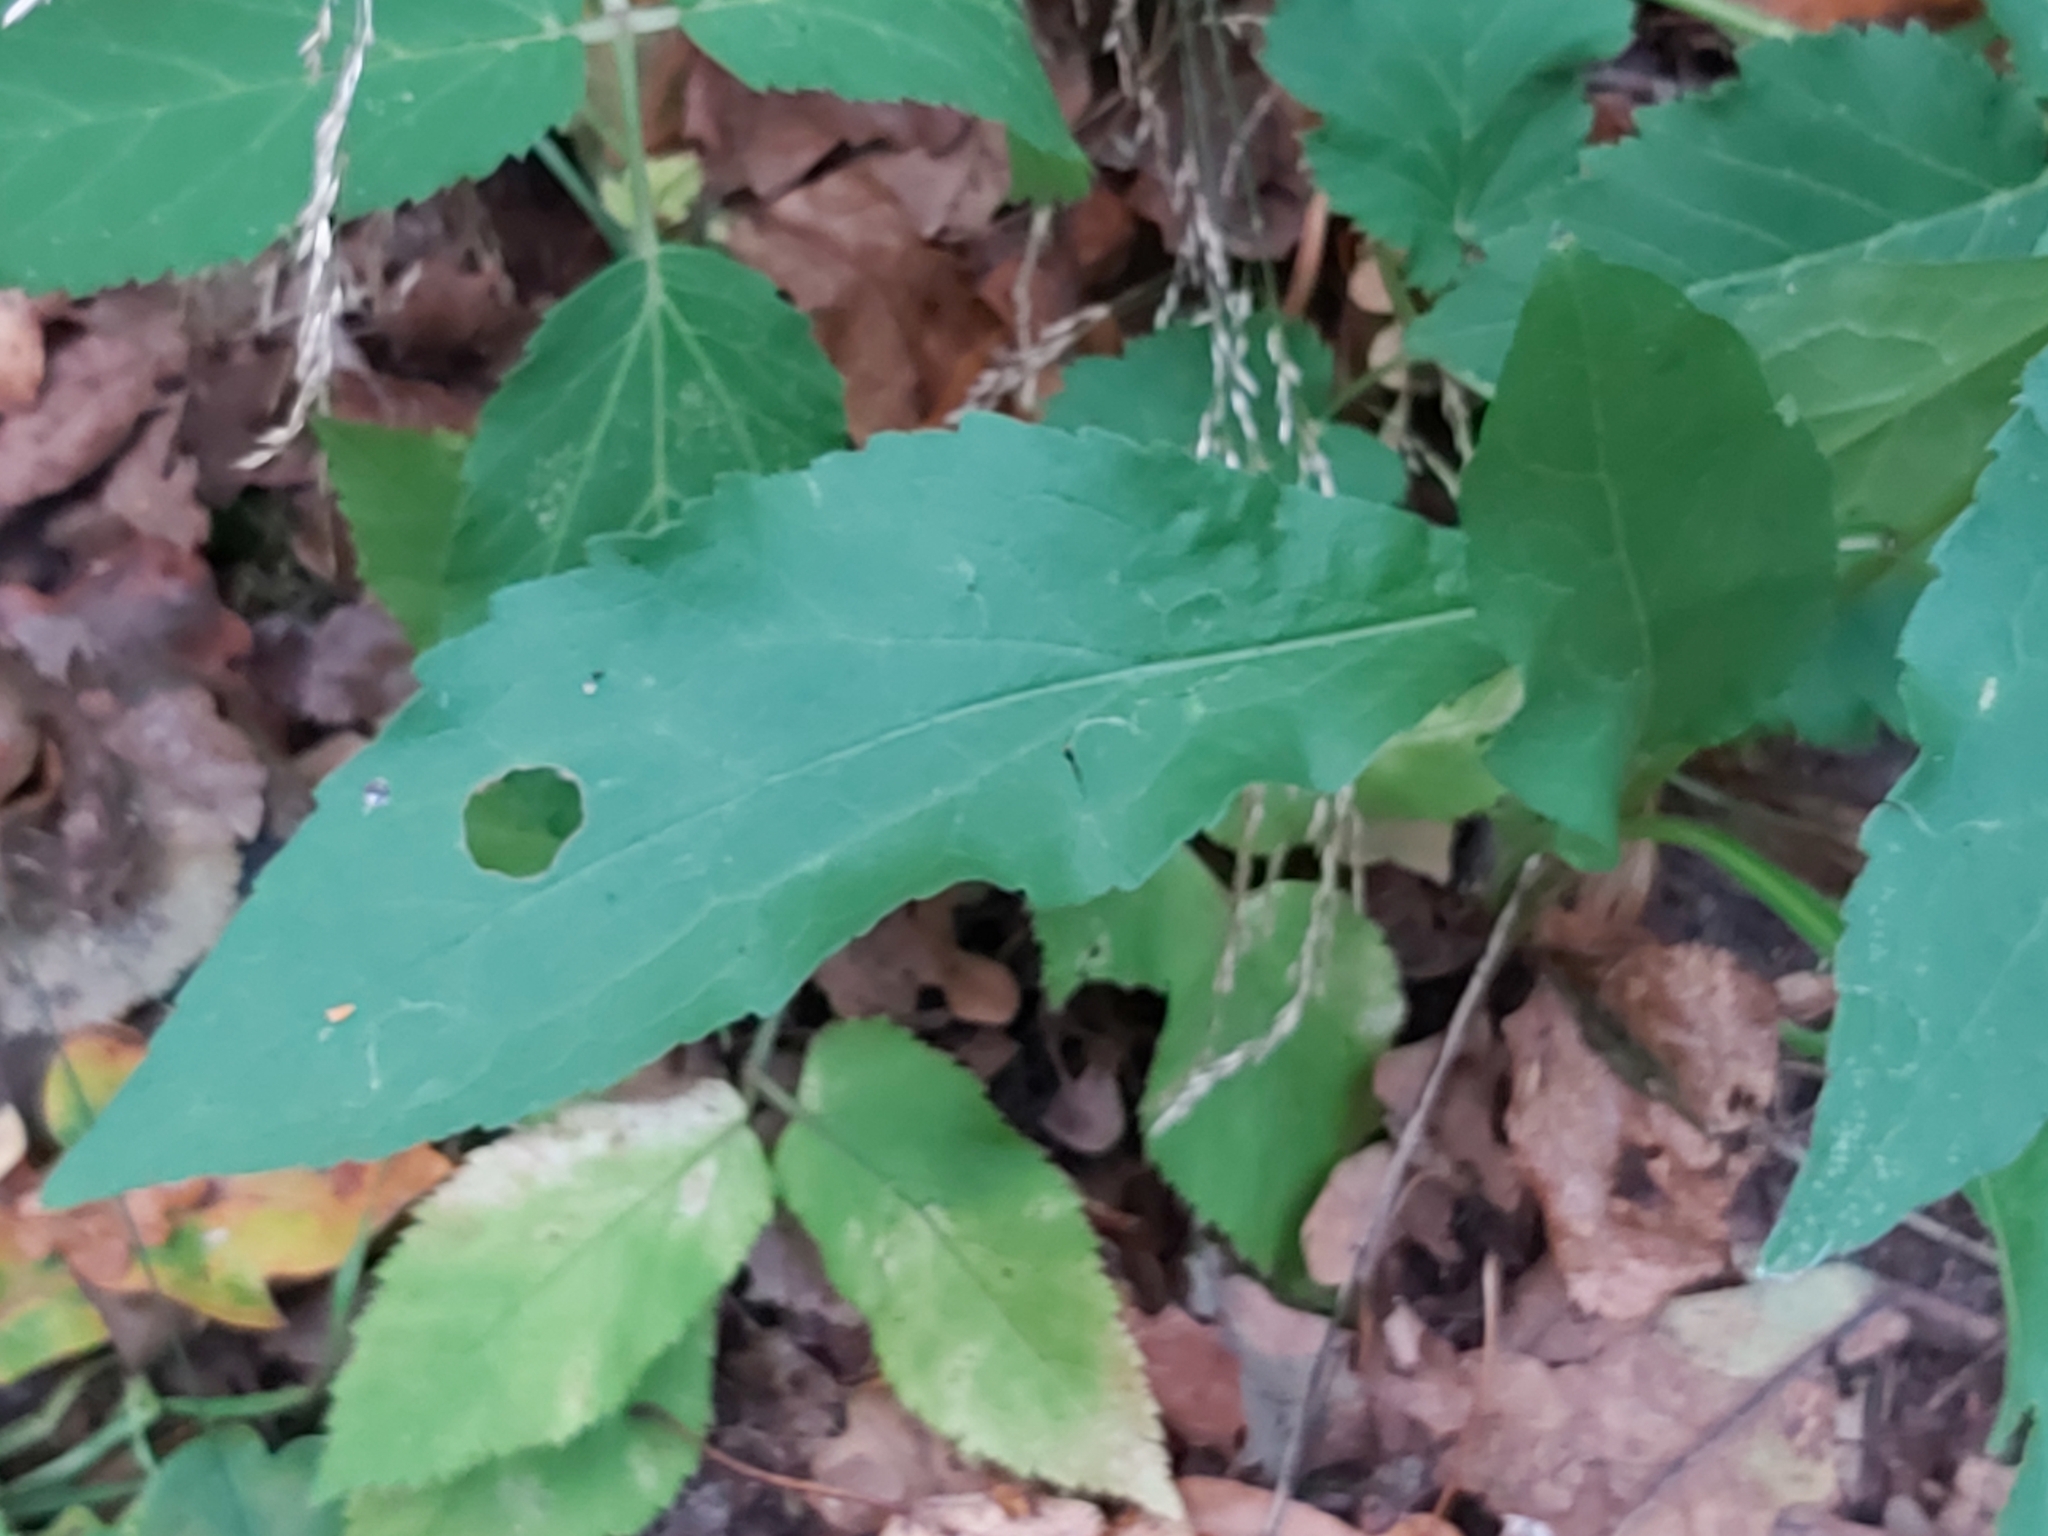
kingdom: Plantae
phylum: Tracheophyta
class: Magnoliopsida
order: Asterales
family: Asteraceae
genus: Solidago
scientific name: Solidago virgaurea
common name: Goldenrod
